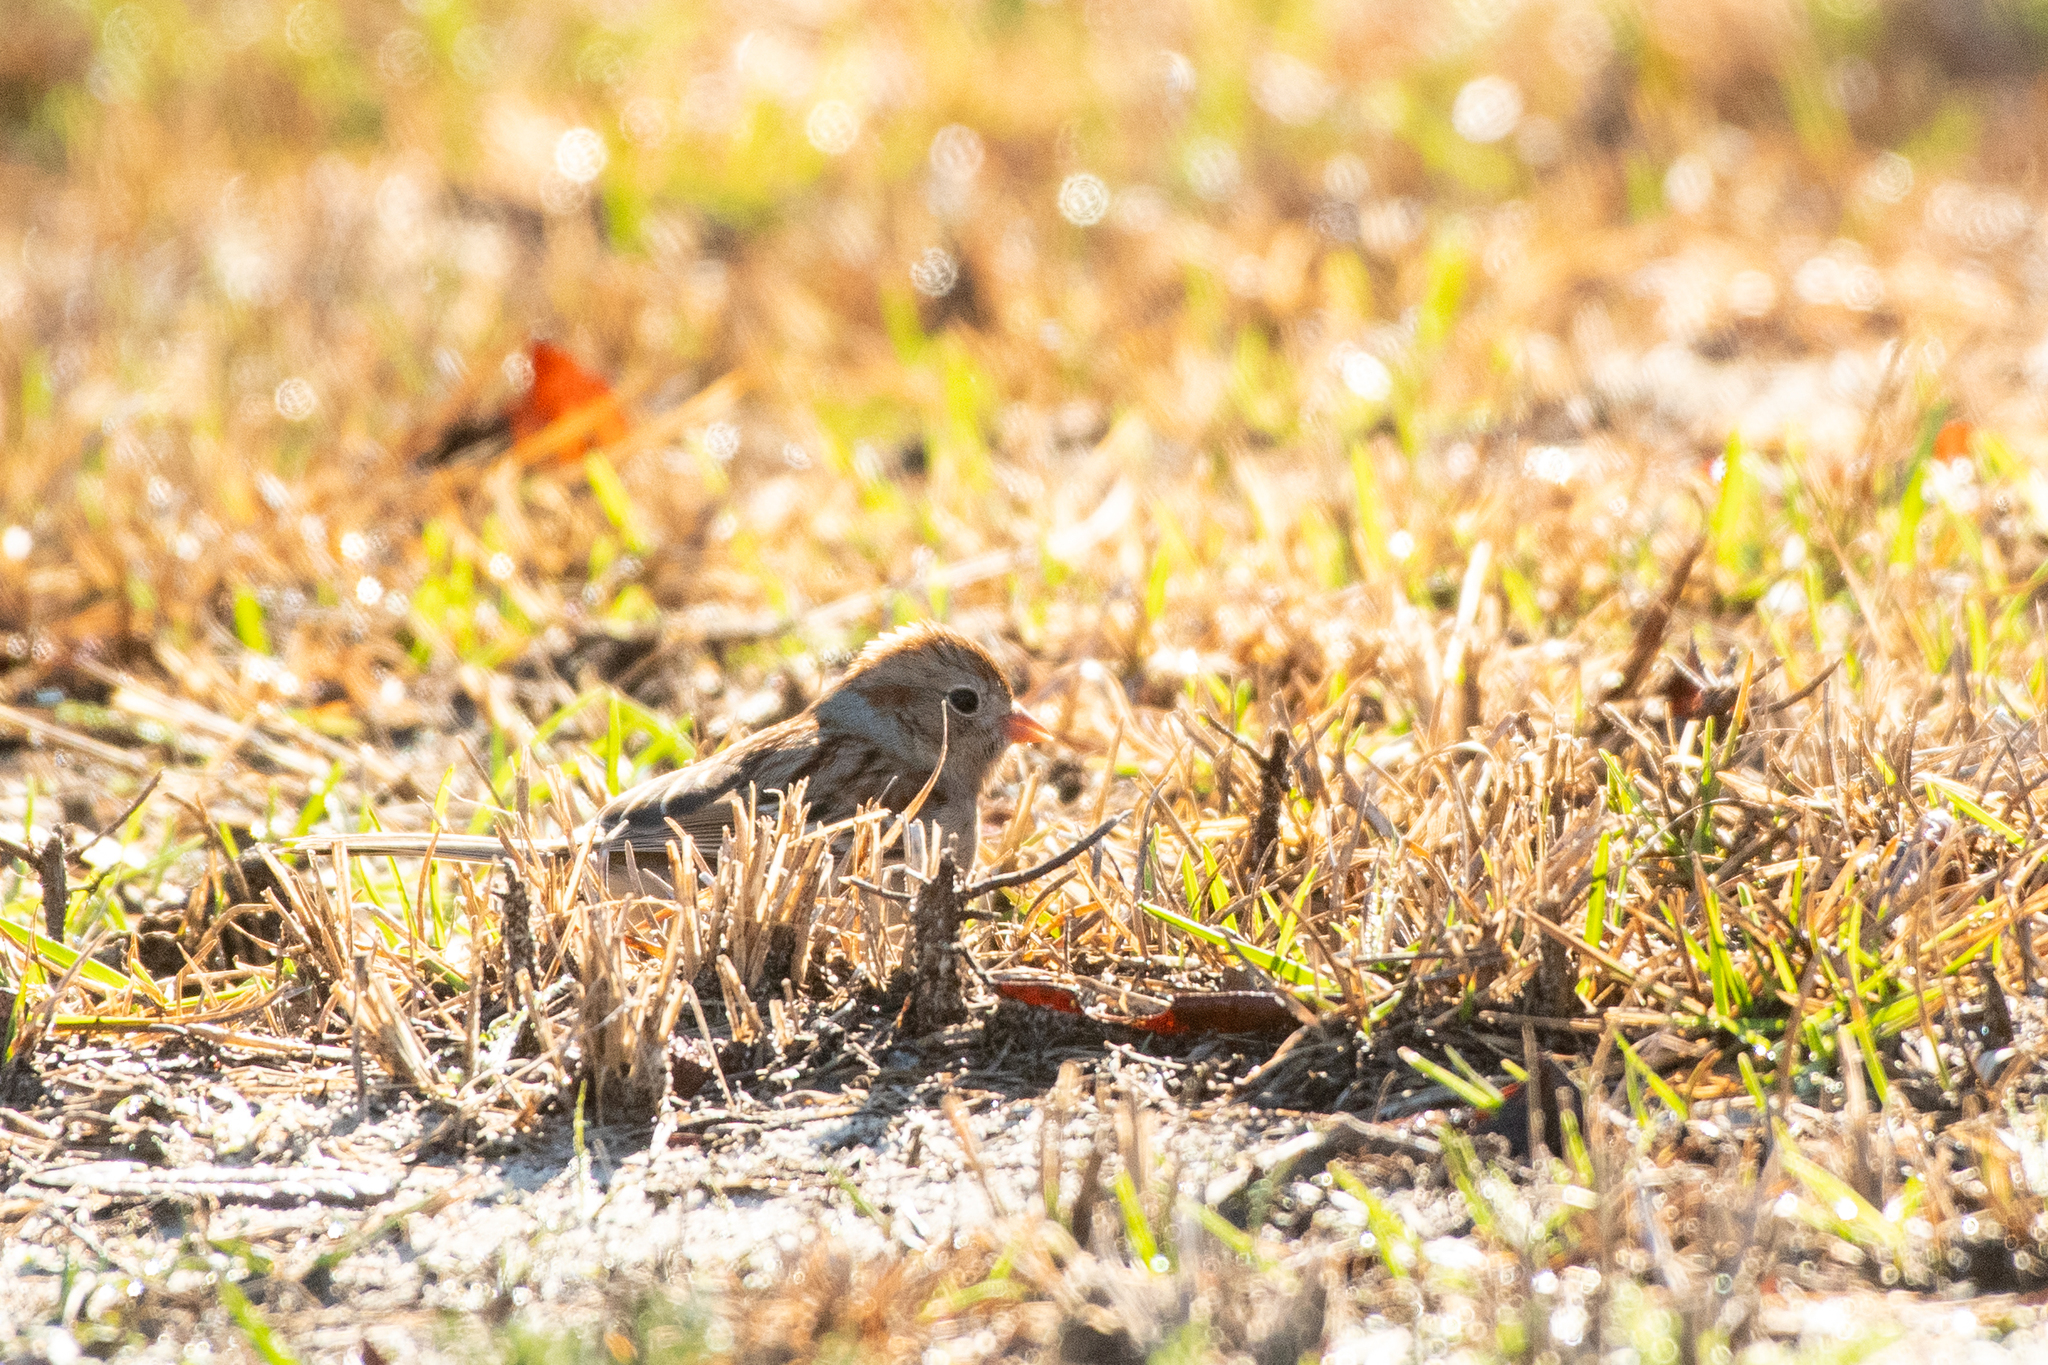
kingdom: Animalia
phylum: Chordata
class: Aves
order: Passeriformes
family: Passerellidae
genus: Spizella
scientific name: Spizella pusilla
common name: Field sparrow
